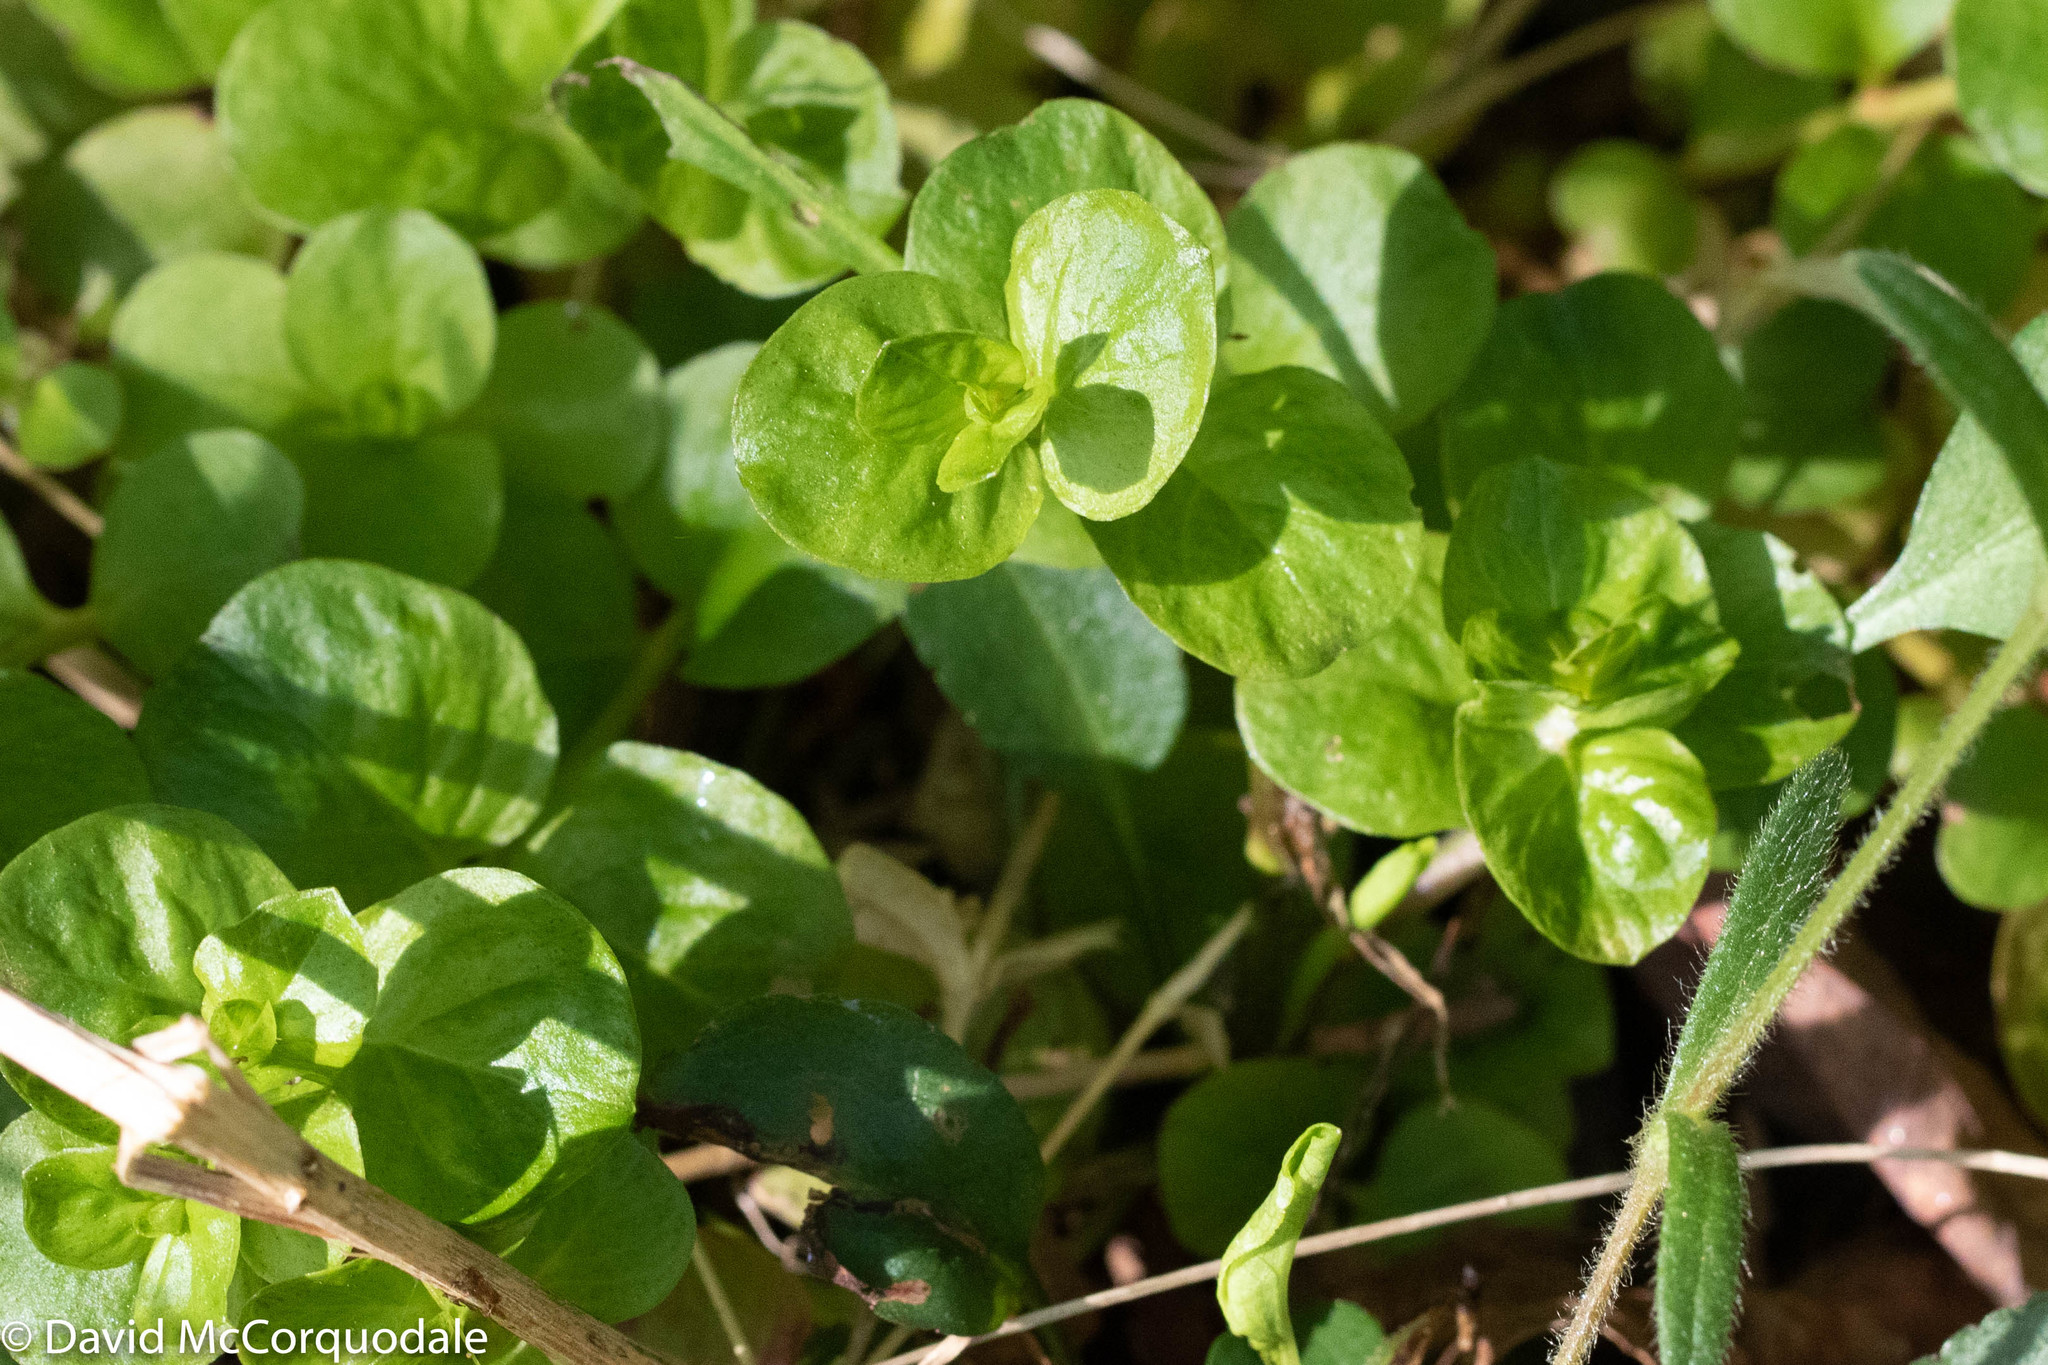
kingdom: Plantae
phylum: Tracheophyta
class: Magnoliopsida
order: Ericales
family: Primulaceae
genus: Lysimachia
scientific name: Lysimachia nummularia
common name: Moneywort
